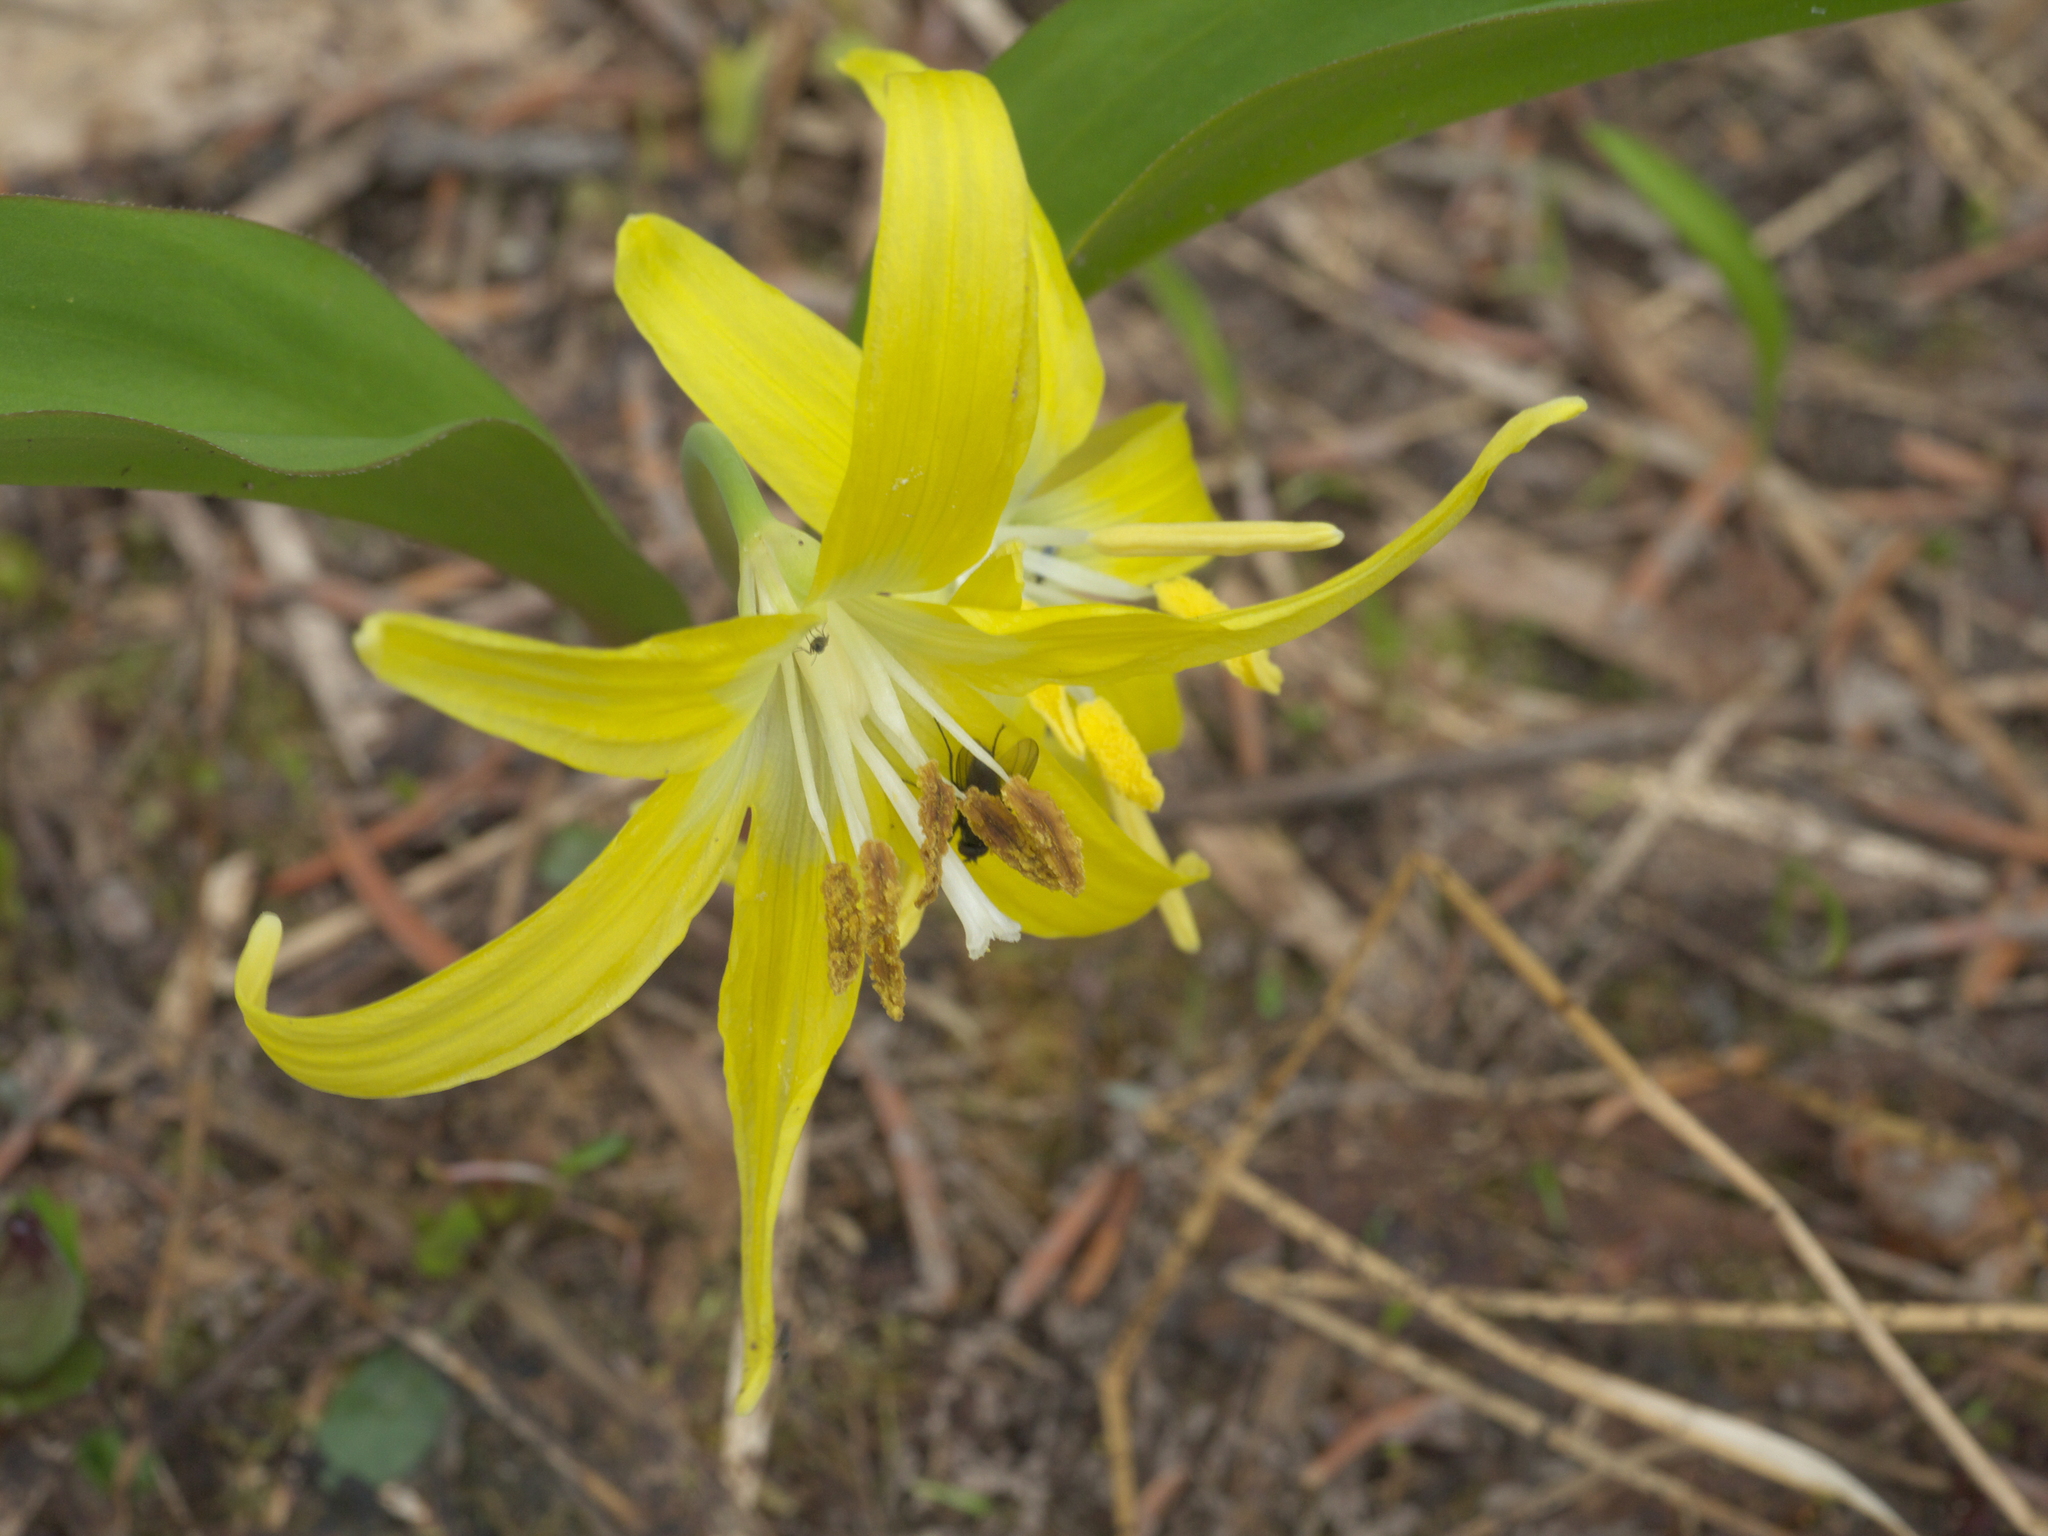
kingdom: Plantae
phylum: Tracheophyta
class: Liliopsida
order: Liliales
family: Liliaceae
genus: Erythronium
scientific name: Erythronium grandiflorum
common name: Avalanche-lily
